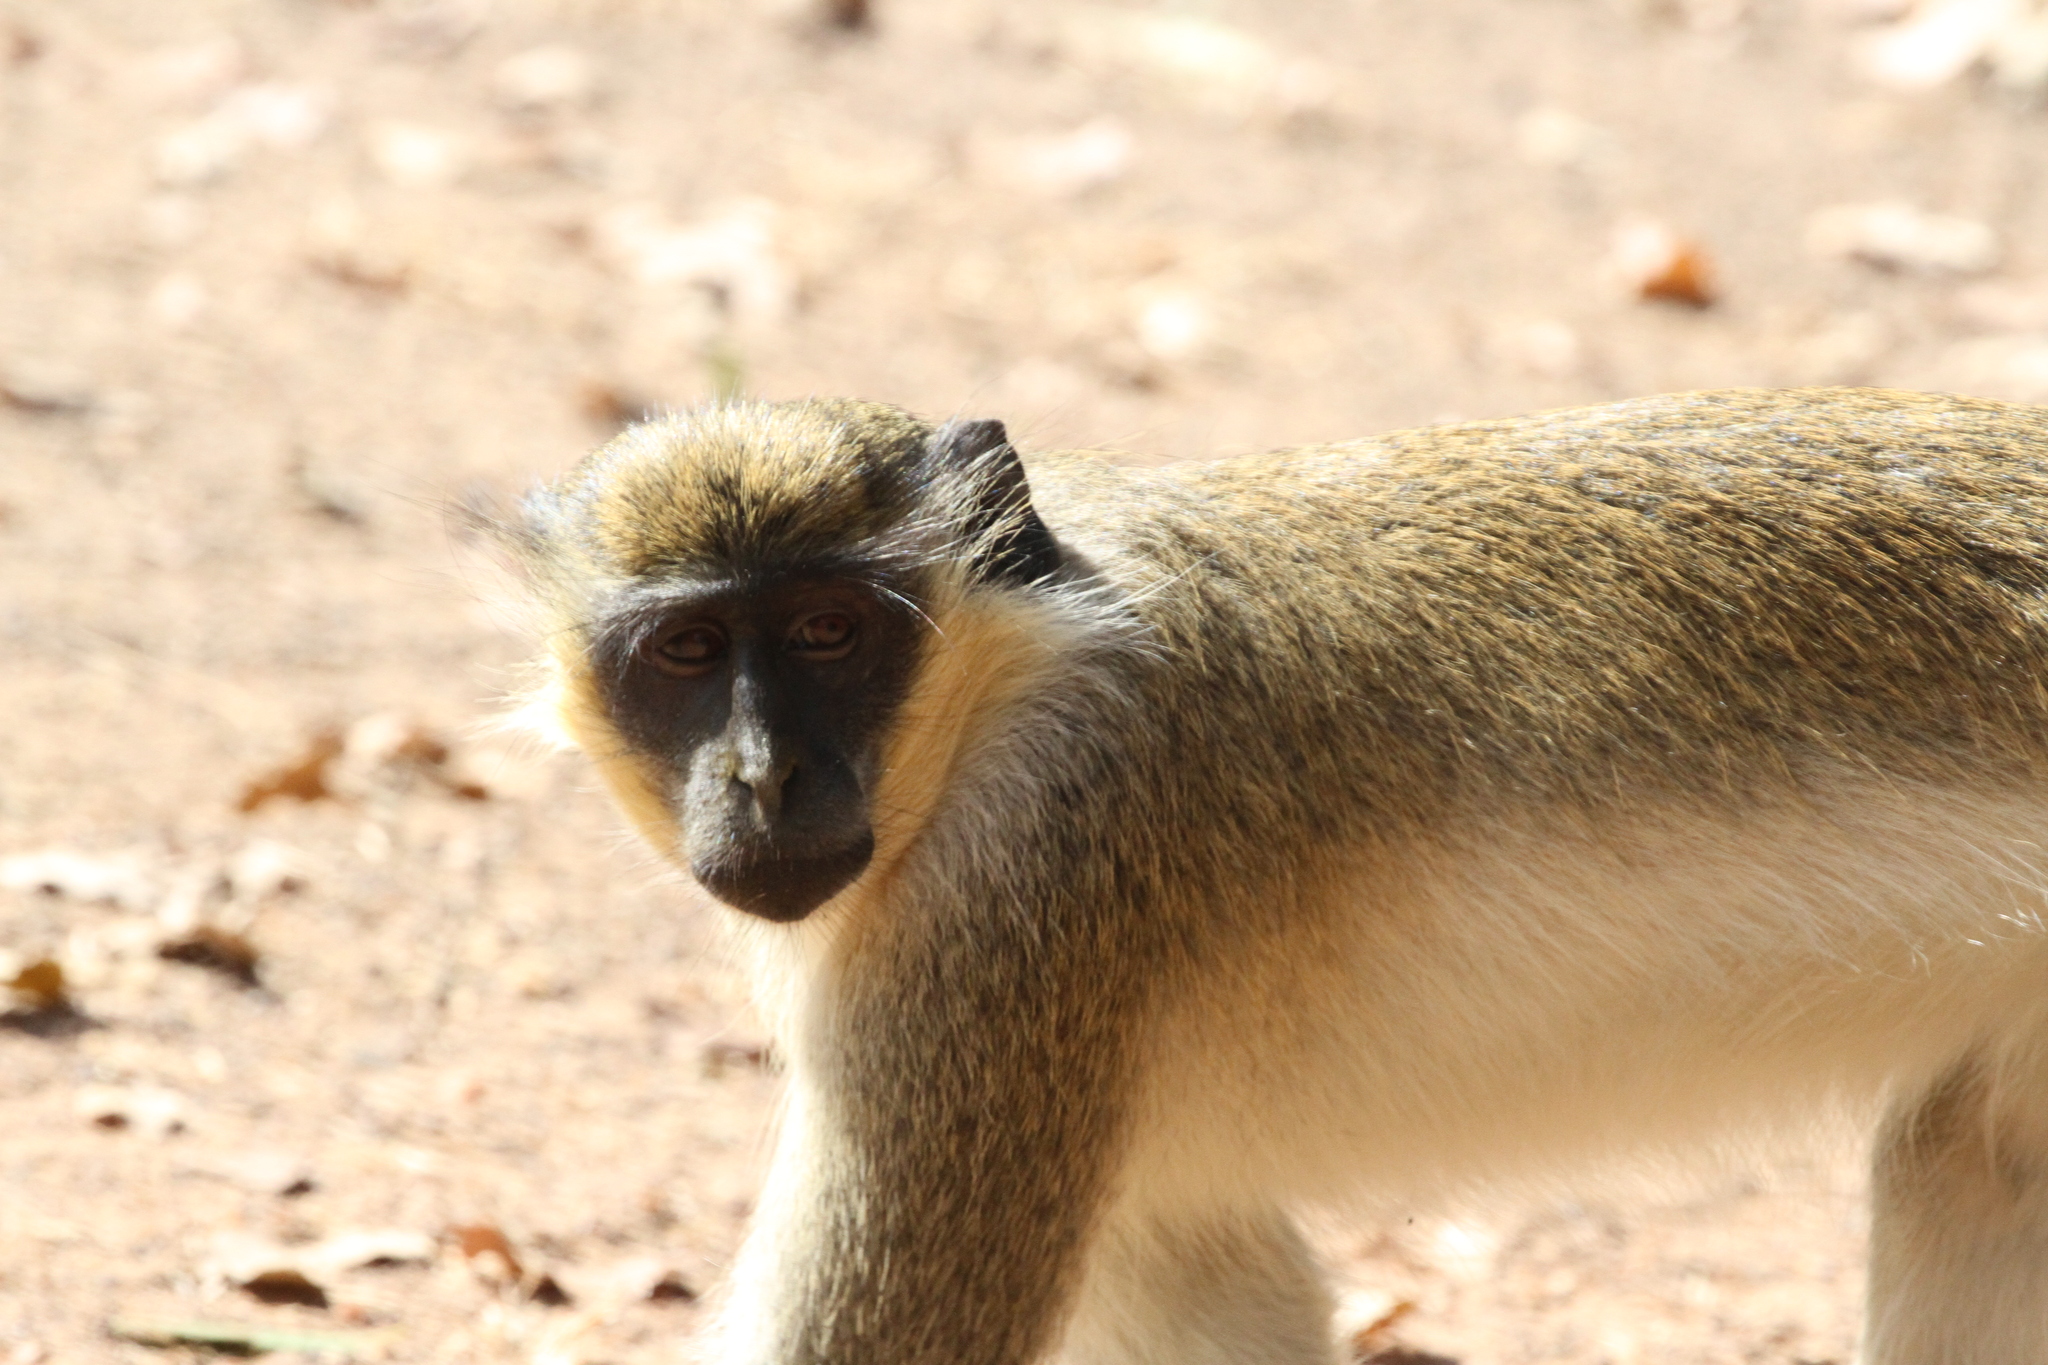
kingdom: Animalia
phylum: Chordata
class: Mammalia
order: Primates
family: Cercopithecidae
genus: Chlorocebus
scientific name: Chlorocebus sabaeus
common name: Green monkey
